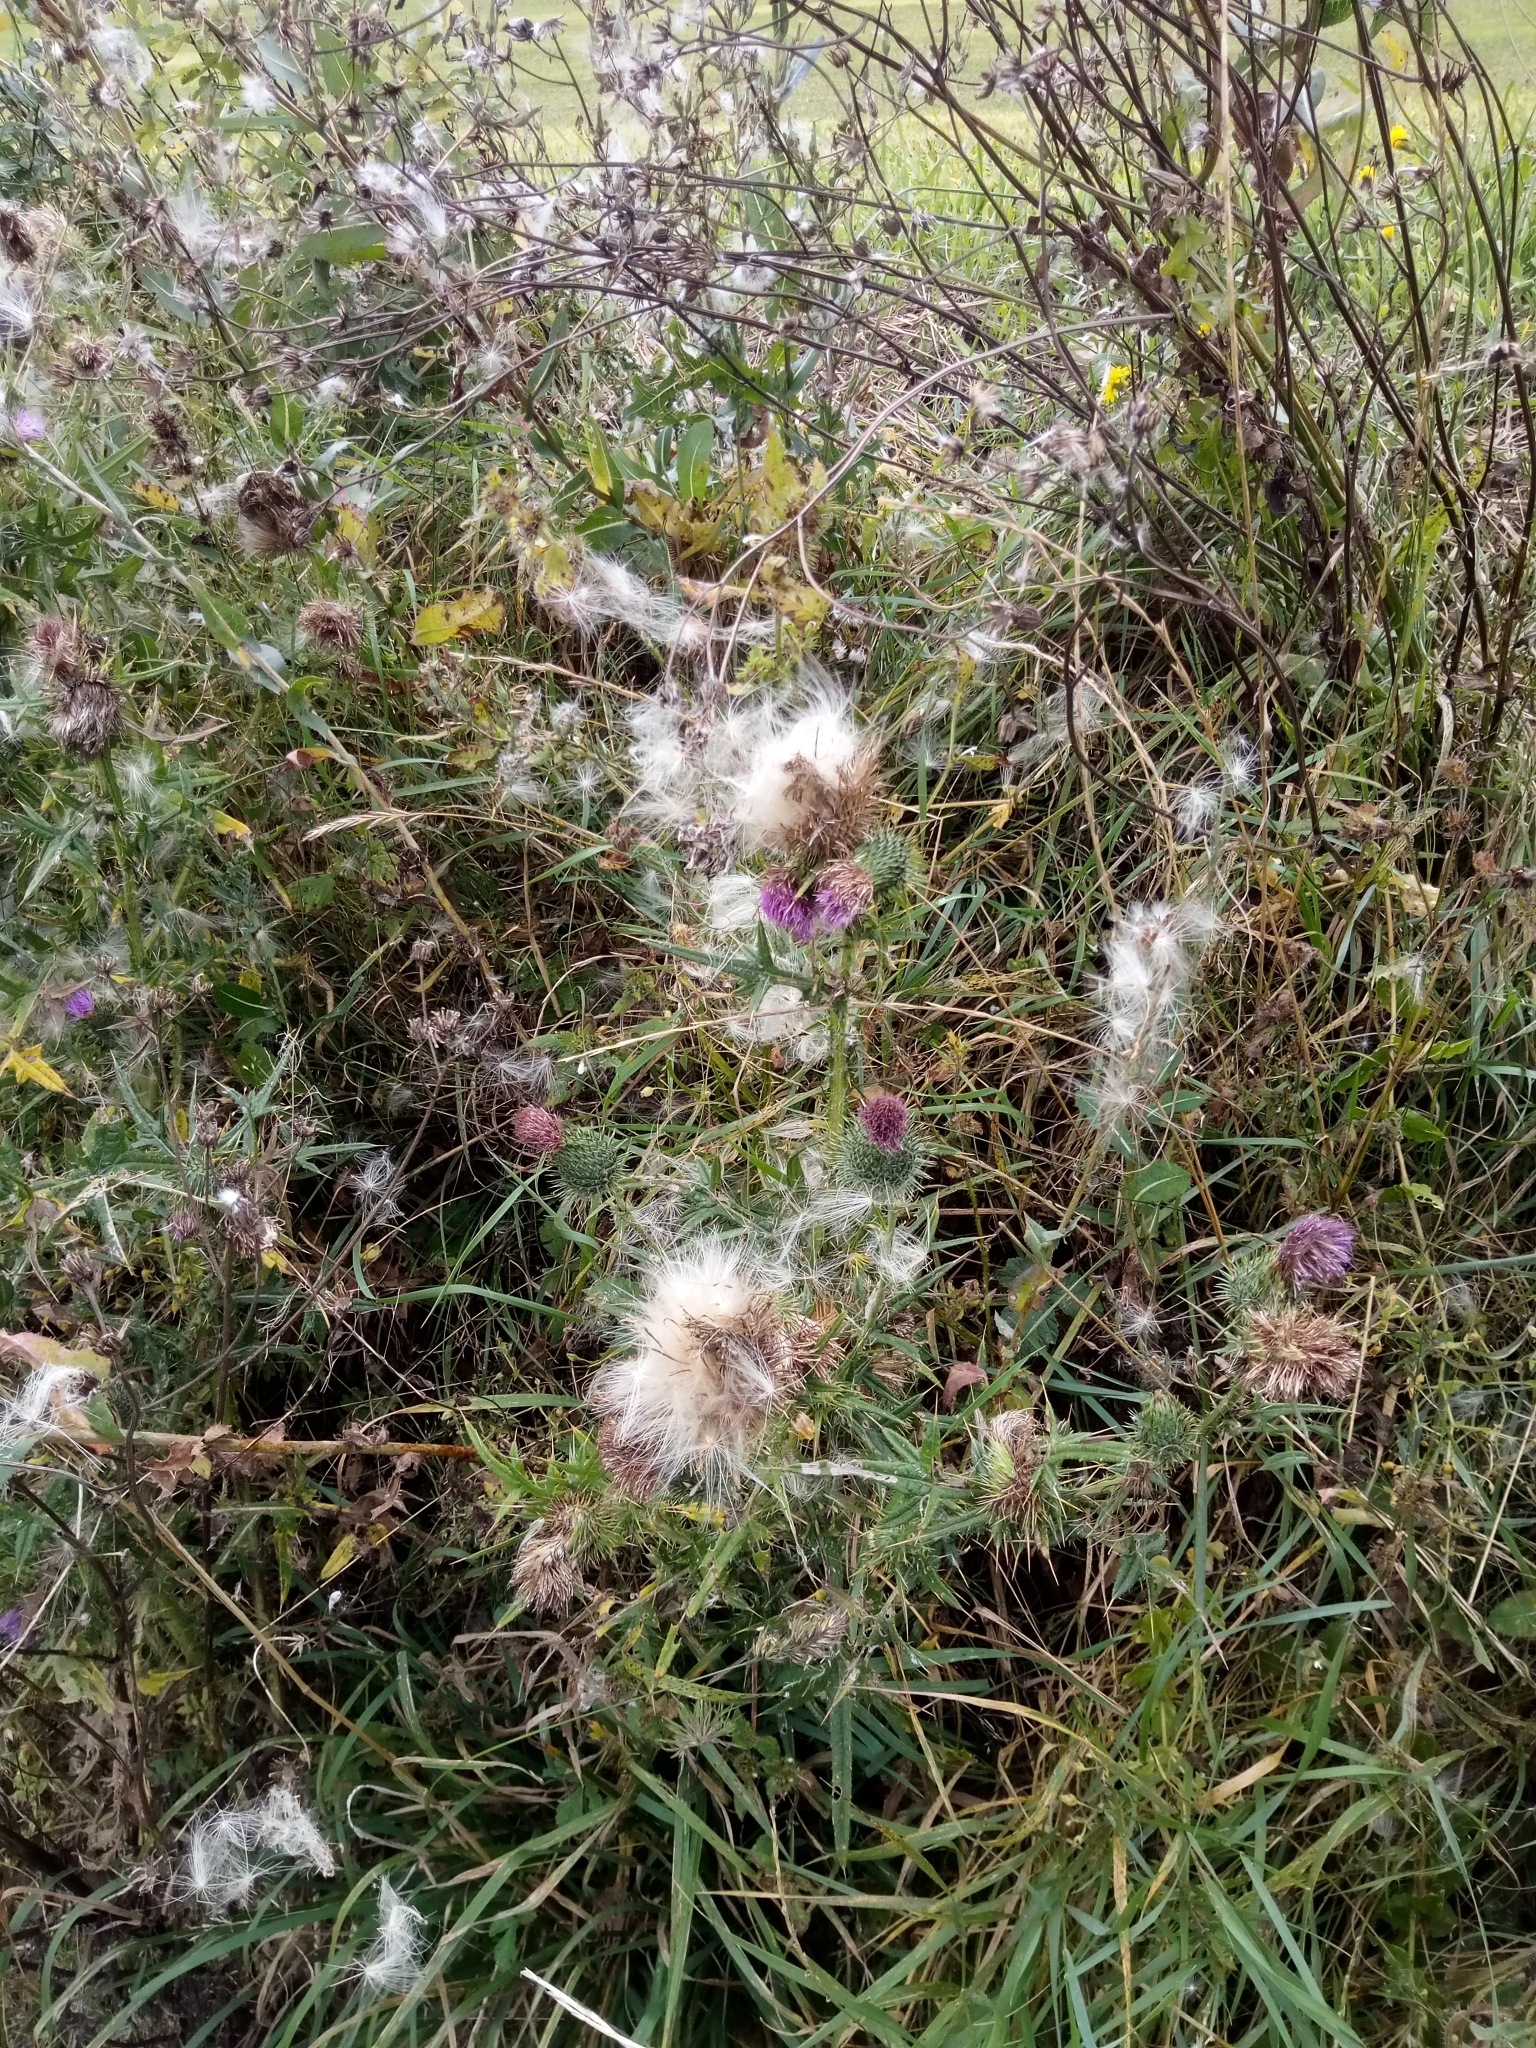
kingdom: Plantae
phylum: Tracheophyta
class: Magnoliopsida
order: Asterales
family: Asteraceae
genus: Cirsium
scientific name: Cirsium vulgare
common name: Bull thistle
